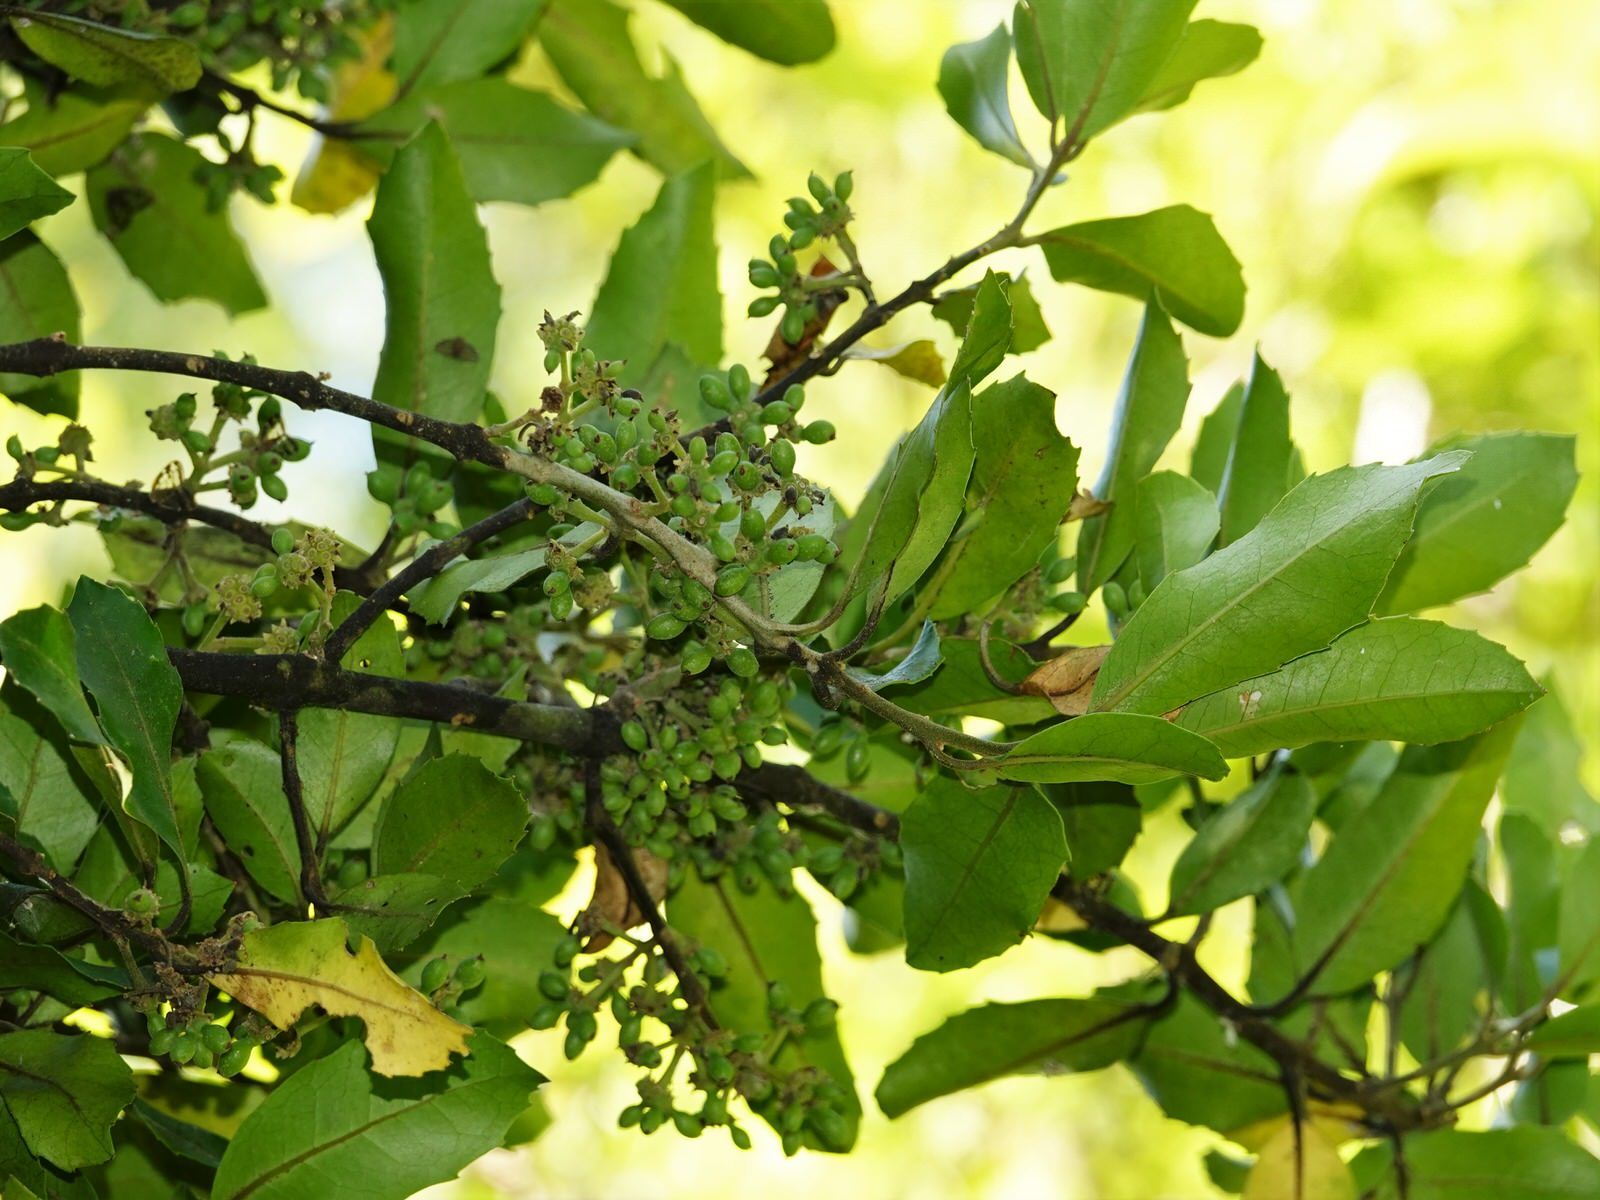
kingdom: Plantae
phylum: Tracheophyta
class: Magnoliopsida
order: Laurales
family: Monimiaceae
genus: Hedycarya
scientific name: Hedycarya arborea
